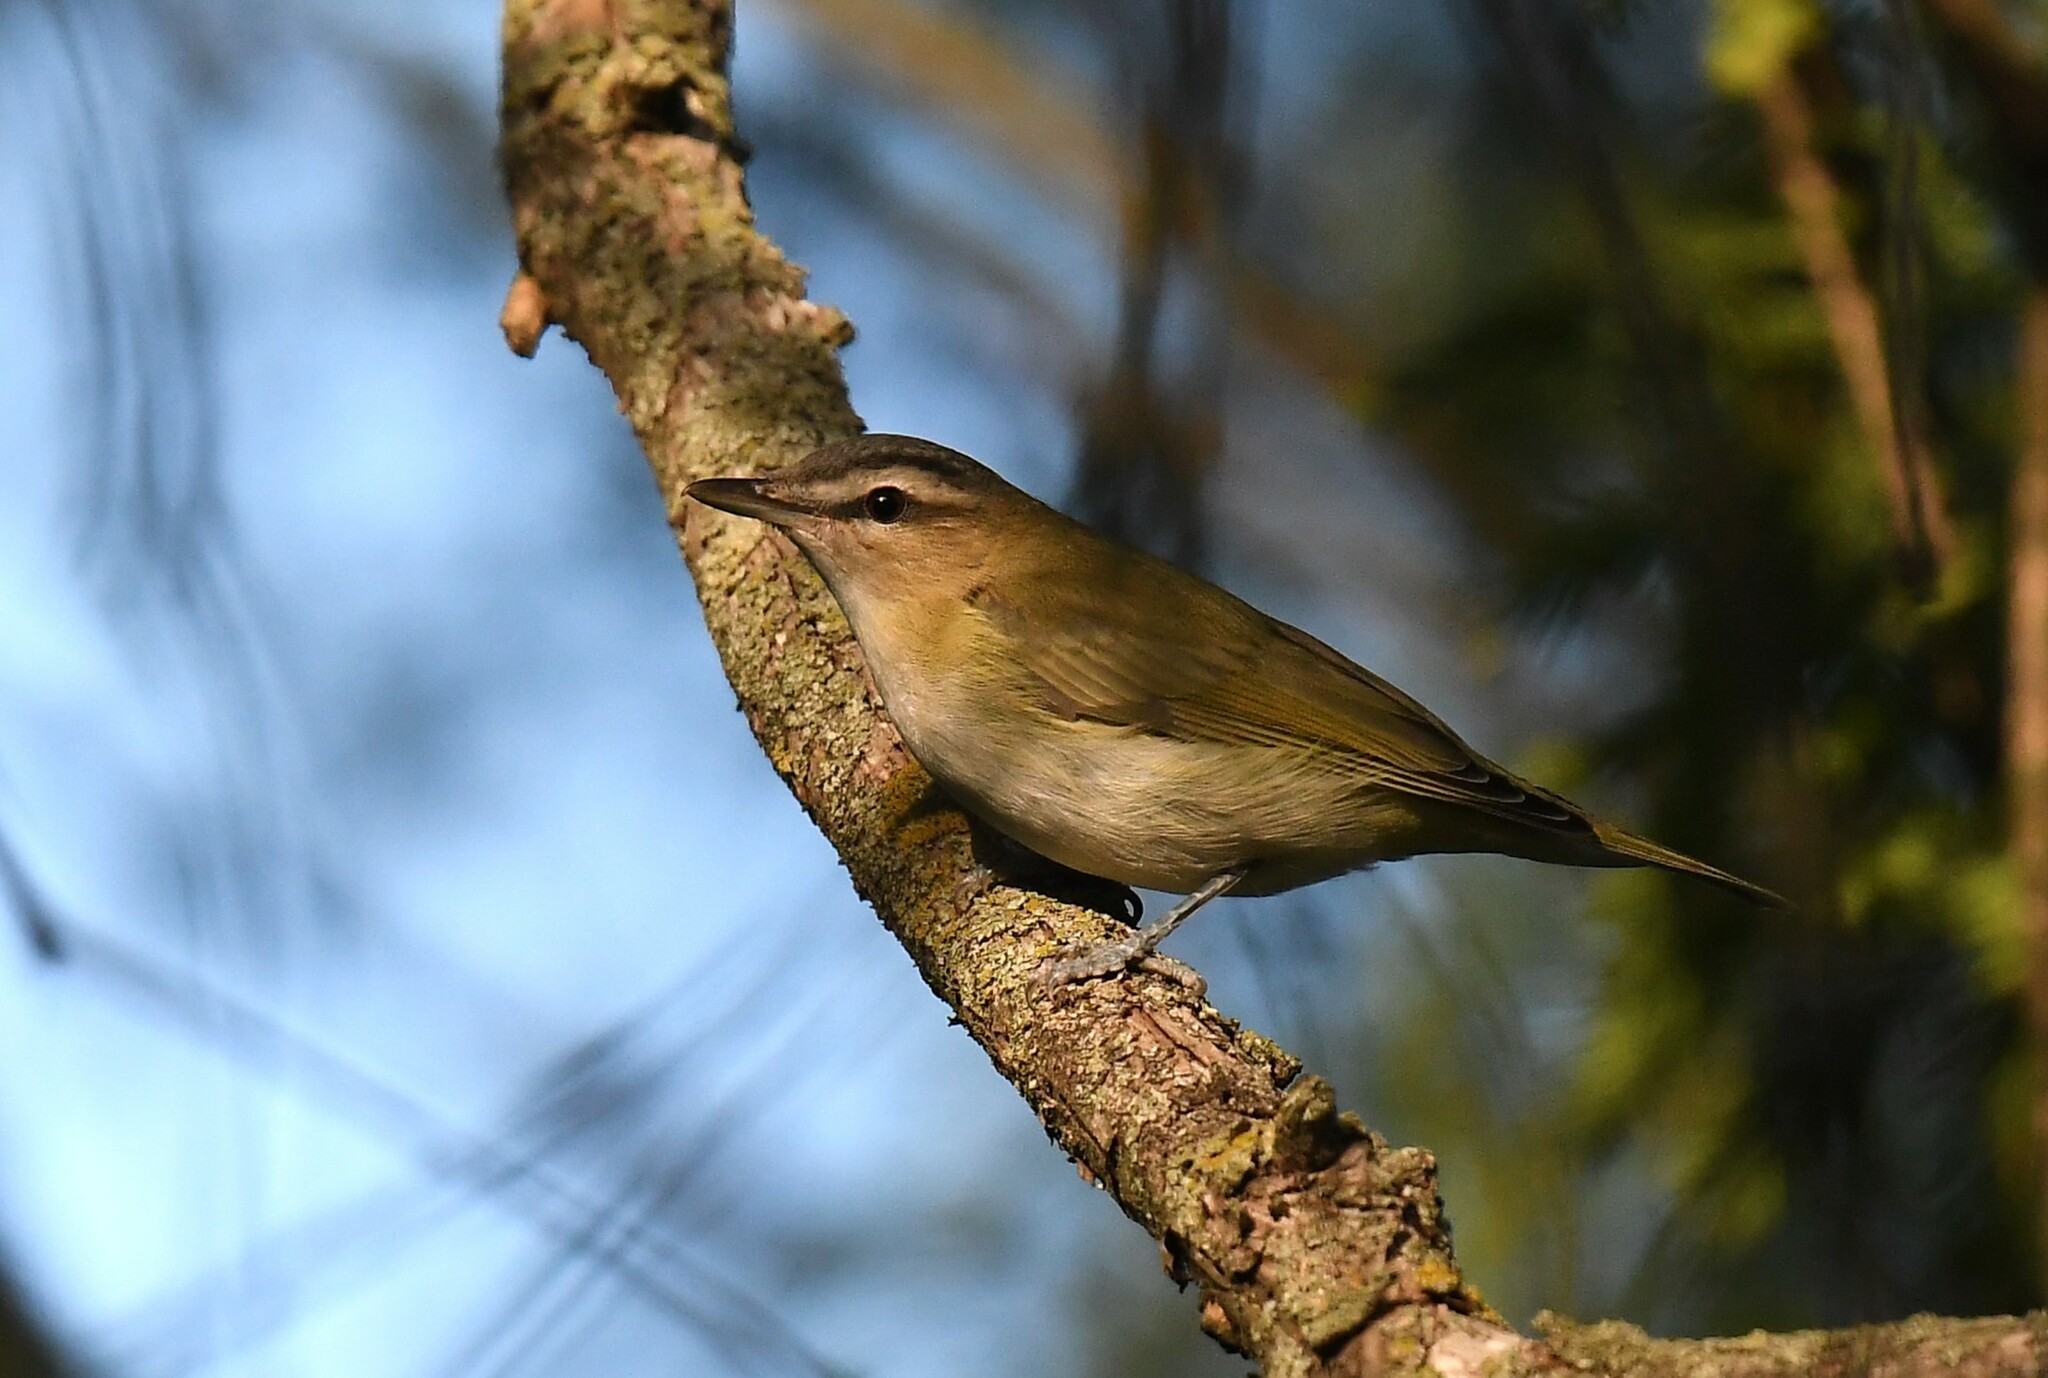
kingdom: Animalia
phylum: Chordata
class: Aves
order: Passeriformes
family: Vireonidae
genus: Vireo
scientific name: Vireo olivaceus
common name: Red-eyed vireo
